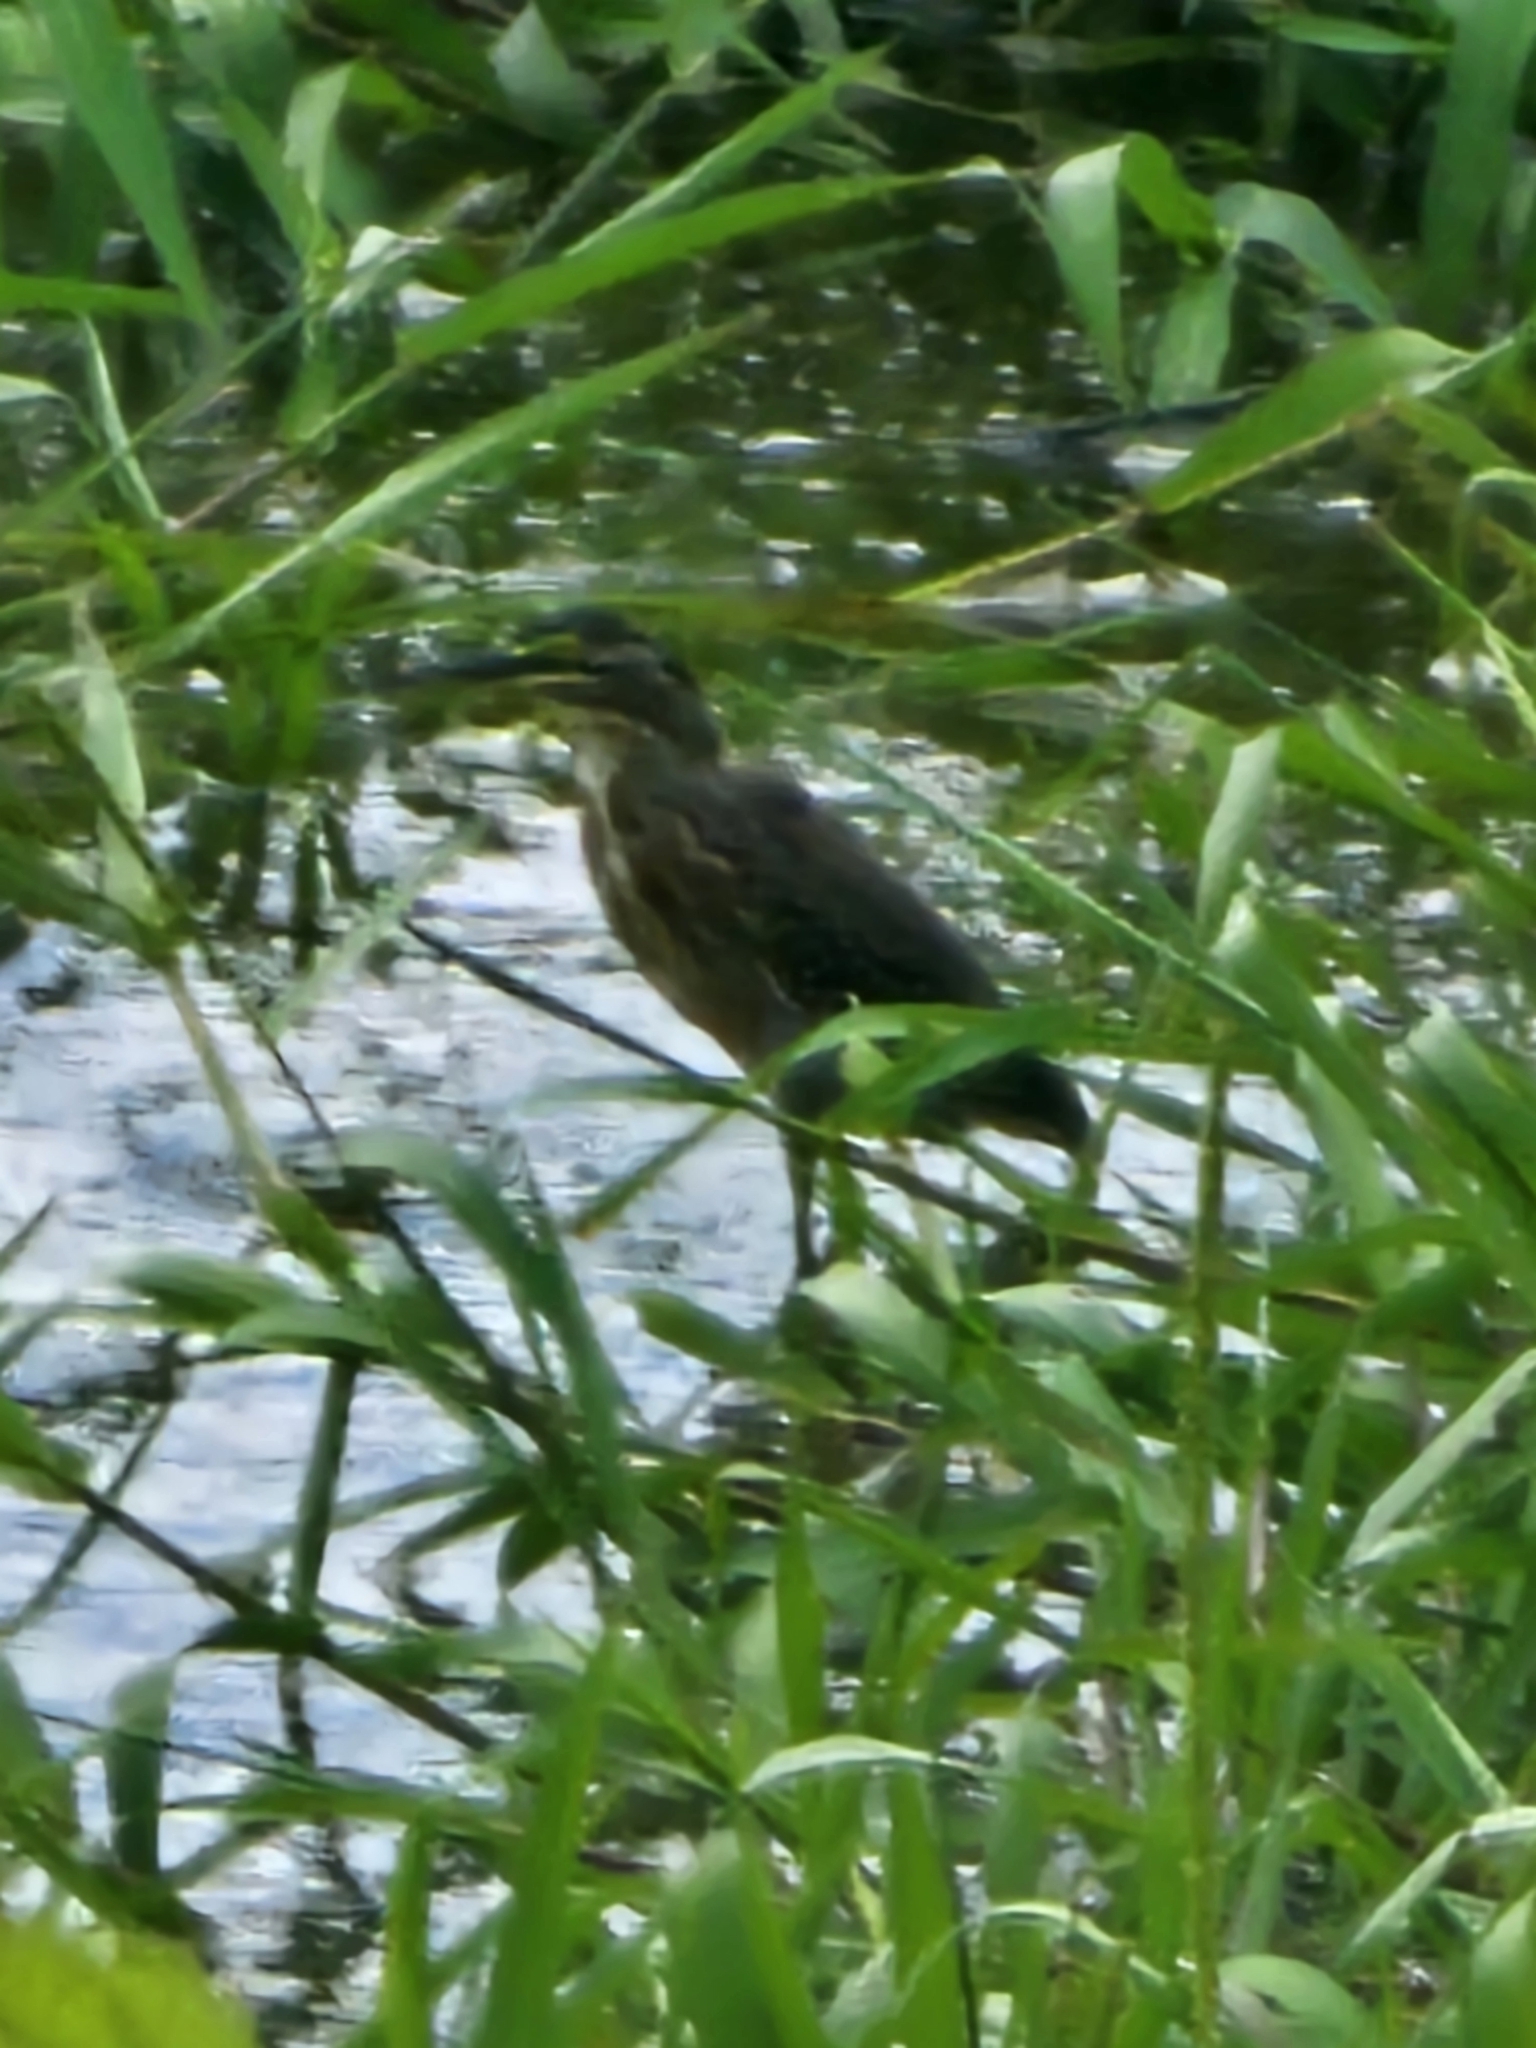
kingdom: Animalia
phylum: Chordata
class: Aves
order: Pelecaniformes
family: Ardeidae
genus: Butorides
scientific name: Butorides striata
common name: Striated heron
